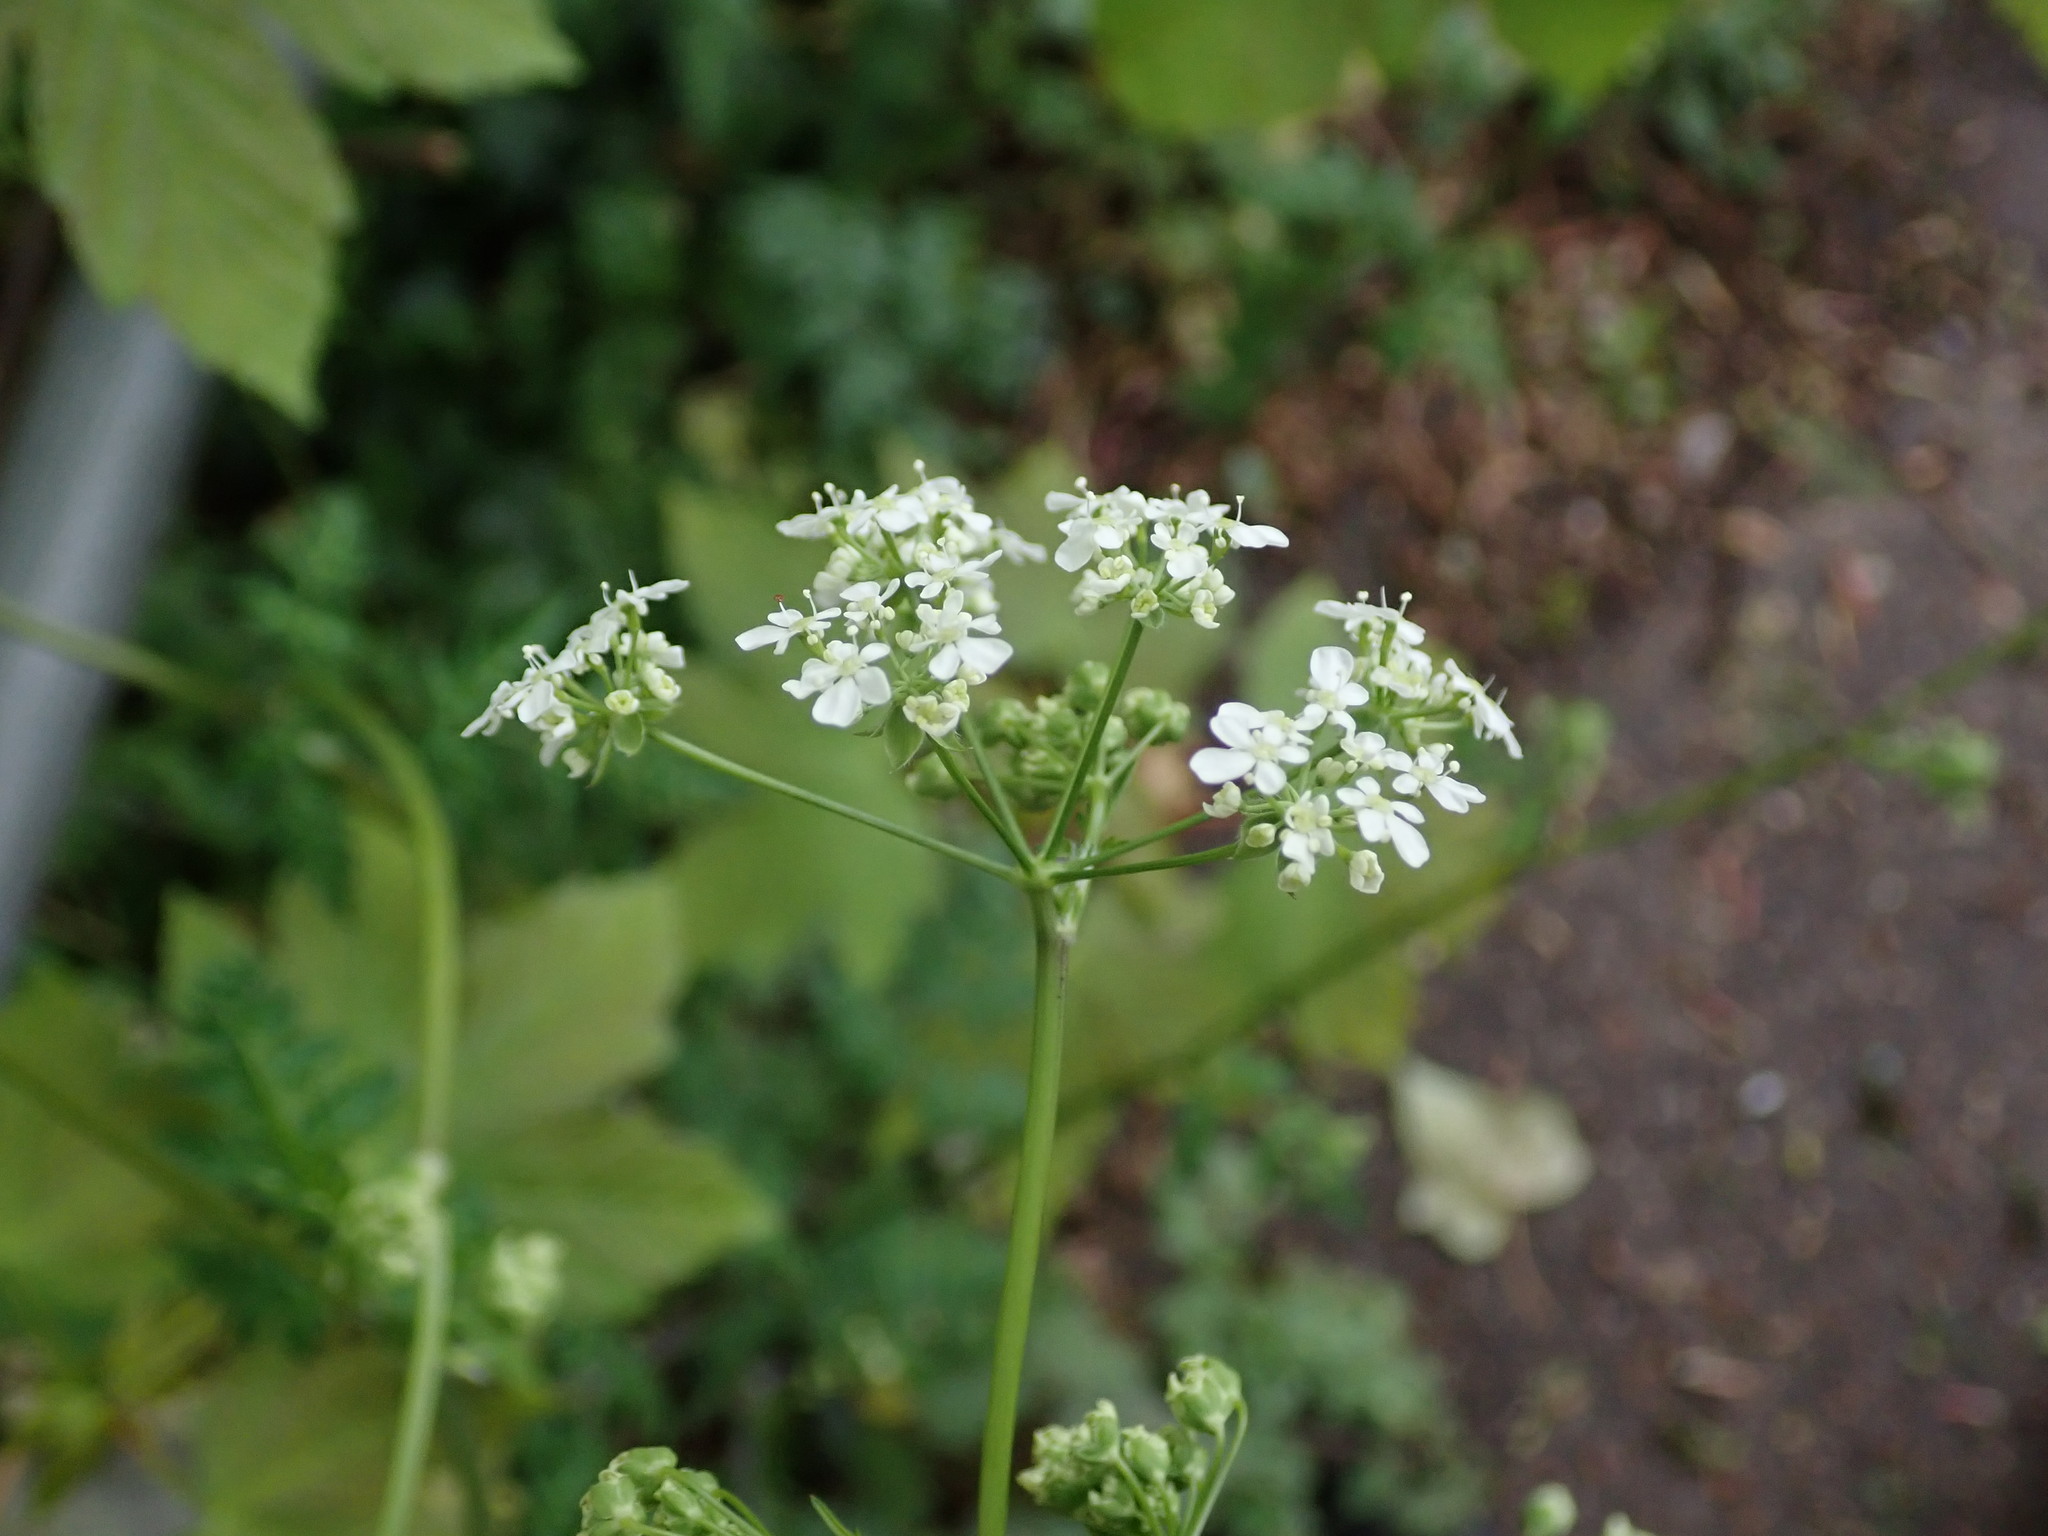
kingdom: Plantae
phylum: Tracheophyta
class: Magnoliopsida
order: Apiales
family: Apiaceae
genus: Anthriscus
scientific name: Anthriscus sylvestris
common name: Cow parsley
